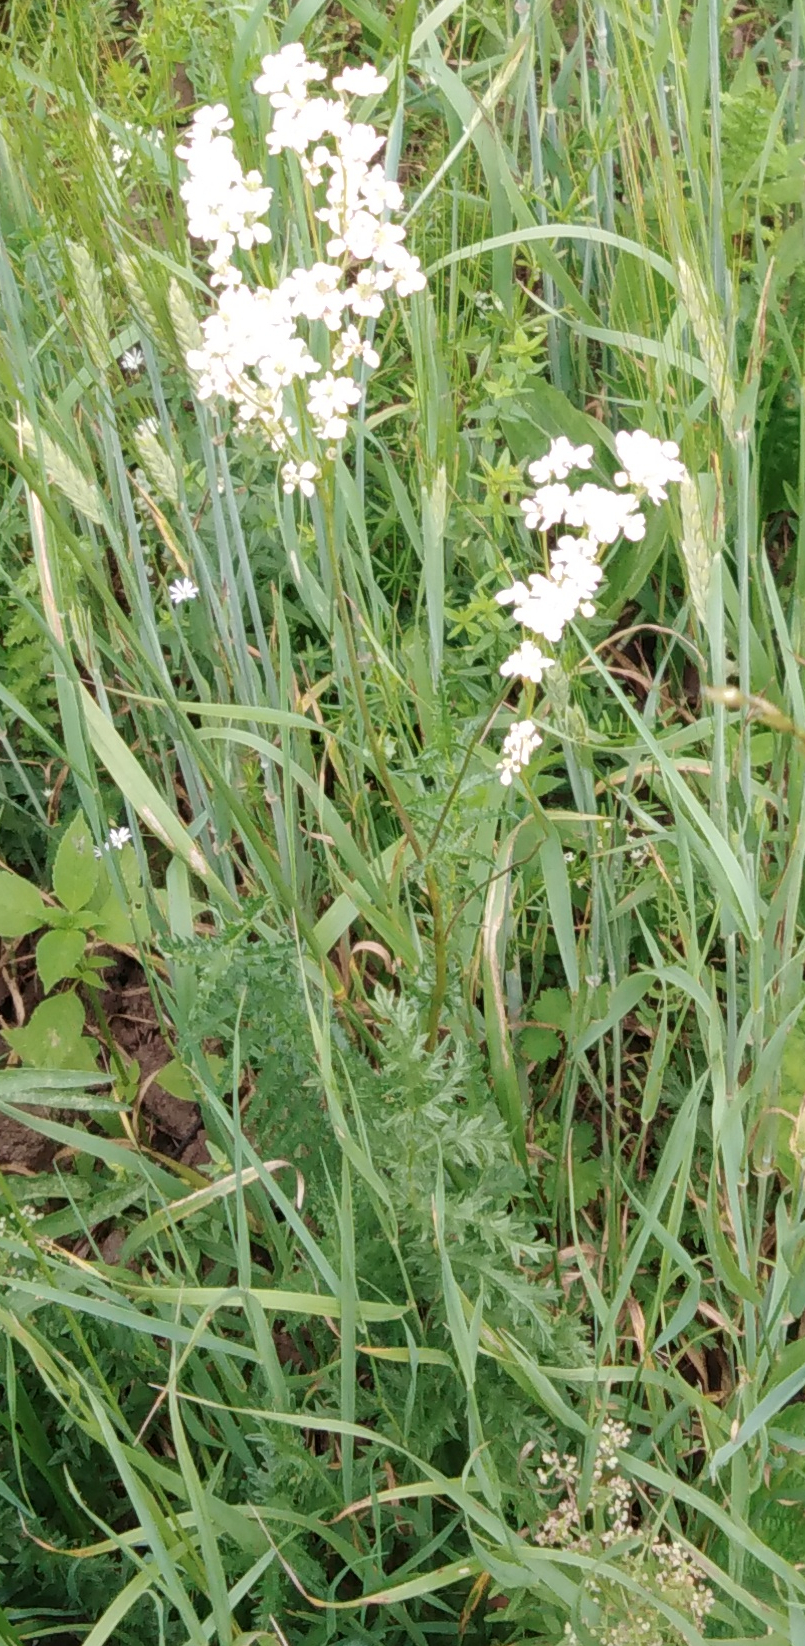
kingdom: Plantae
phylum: Tracheophyta
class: Magnoliopsida
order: Rosales
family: Rosaceae
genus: Filipendula
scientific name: Filipendula vulgaris
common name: Dropwort
